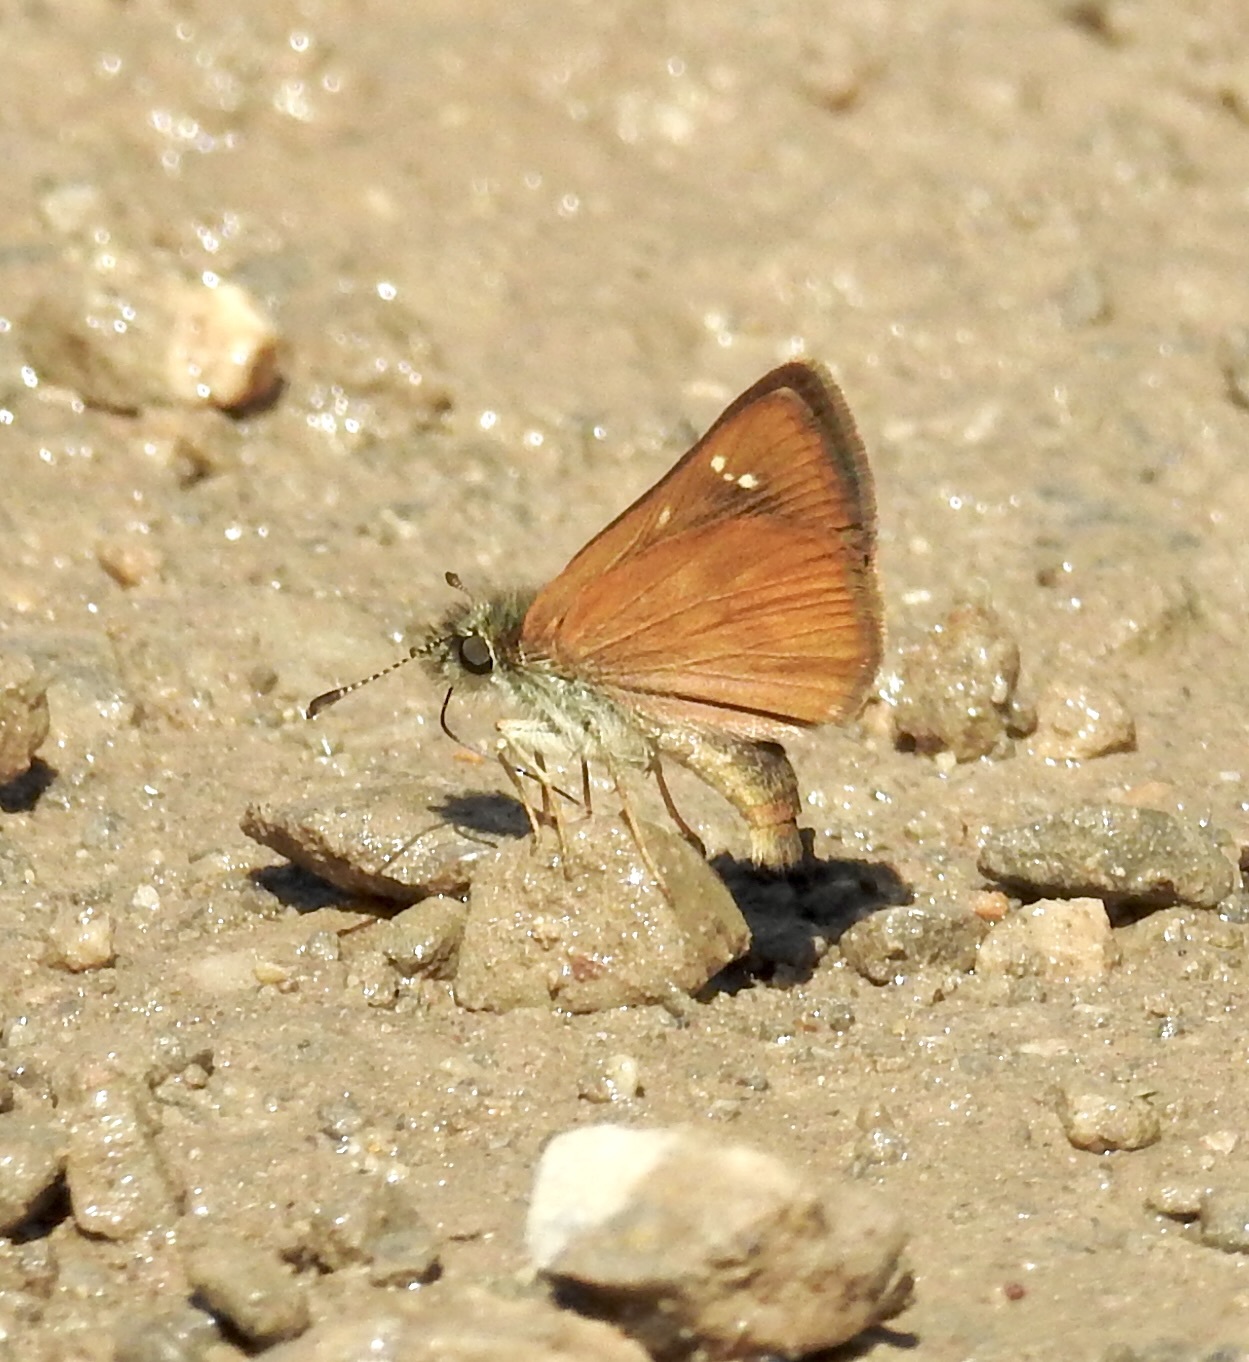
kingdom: Animalia
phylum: Arthropoda
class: Insecta
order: Lepidoptera
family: Hesperiidae
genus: Piruna
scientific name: Piruna pirus
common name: Russet skipperling
